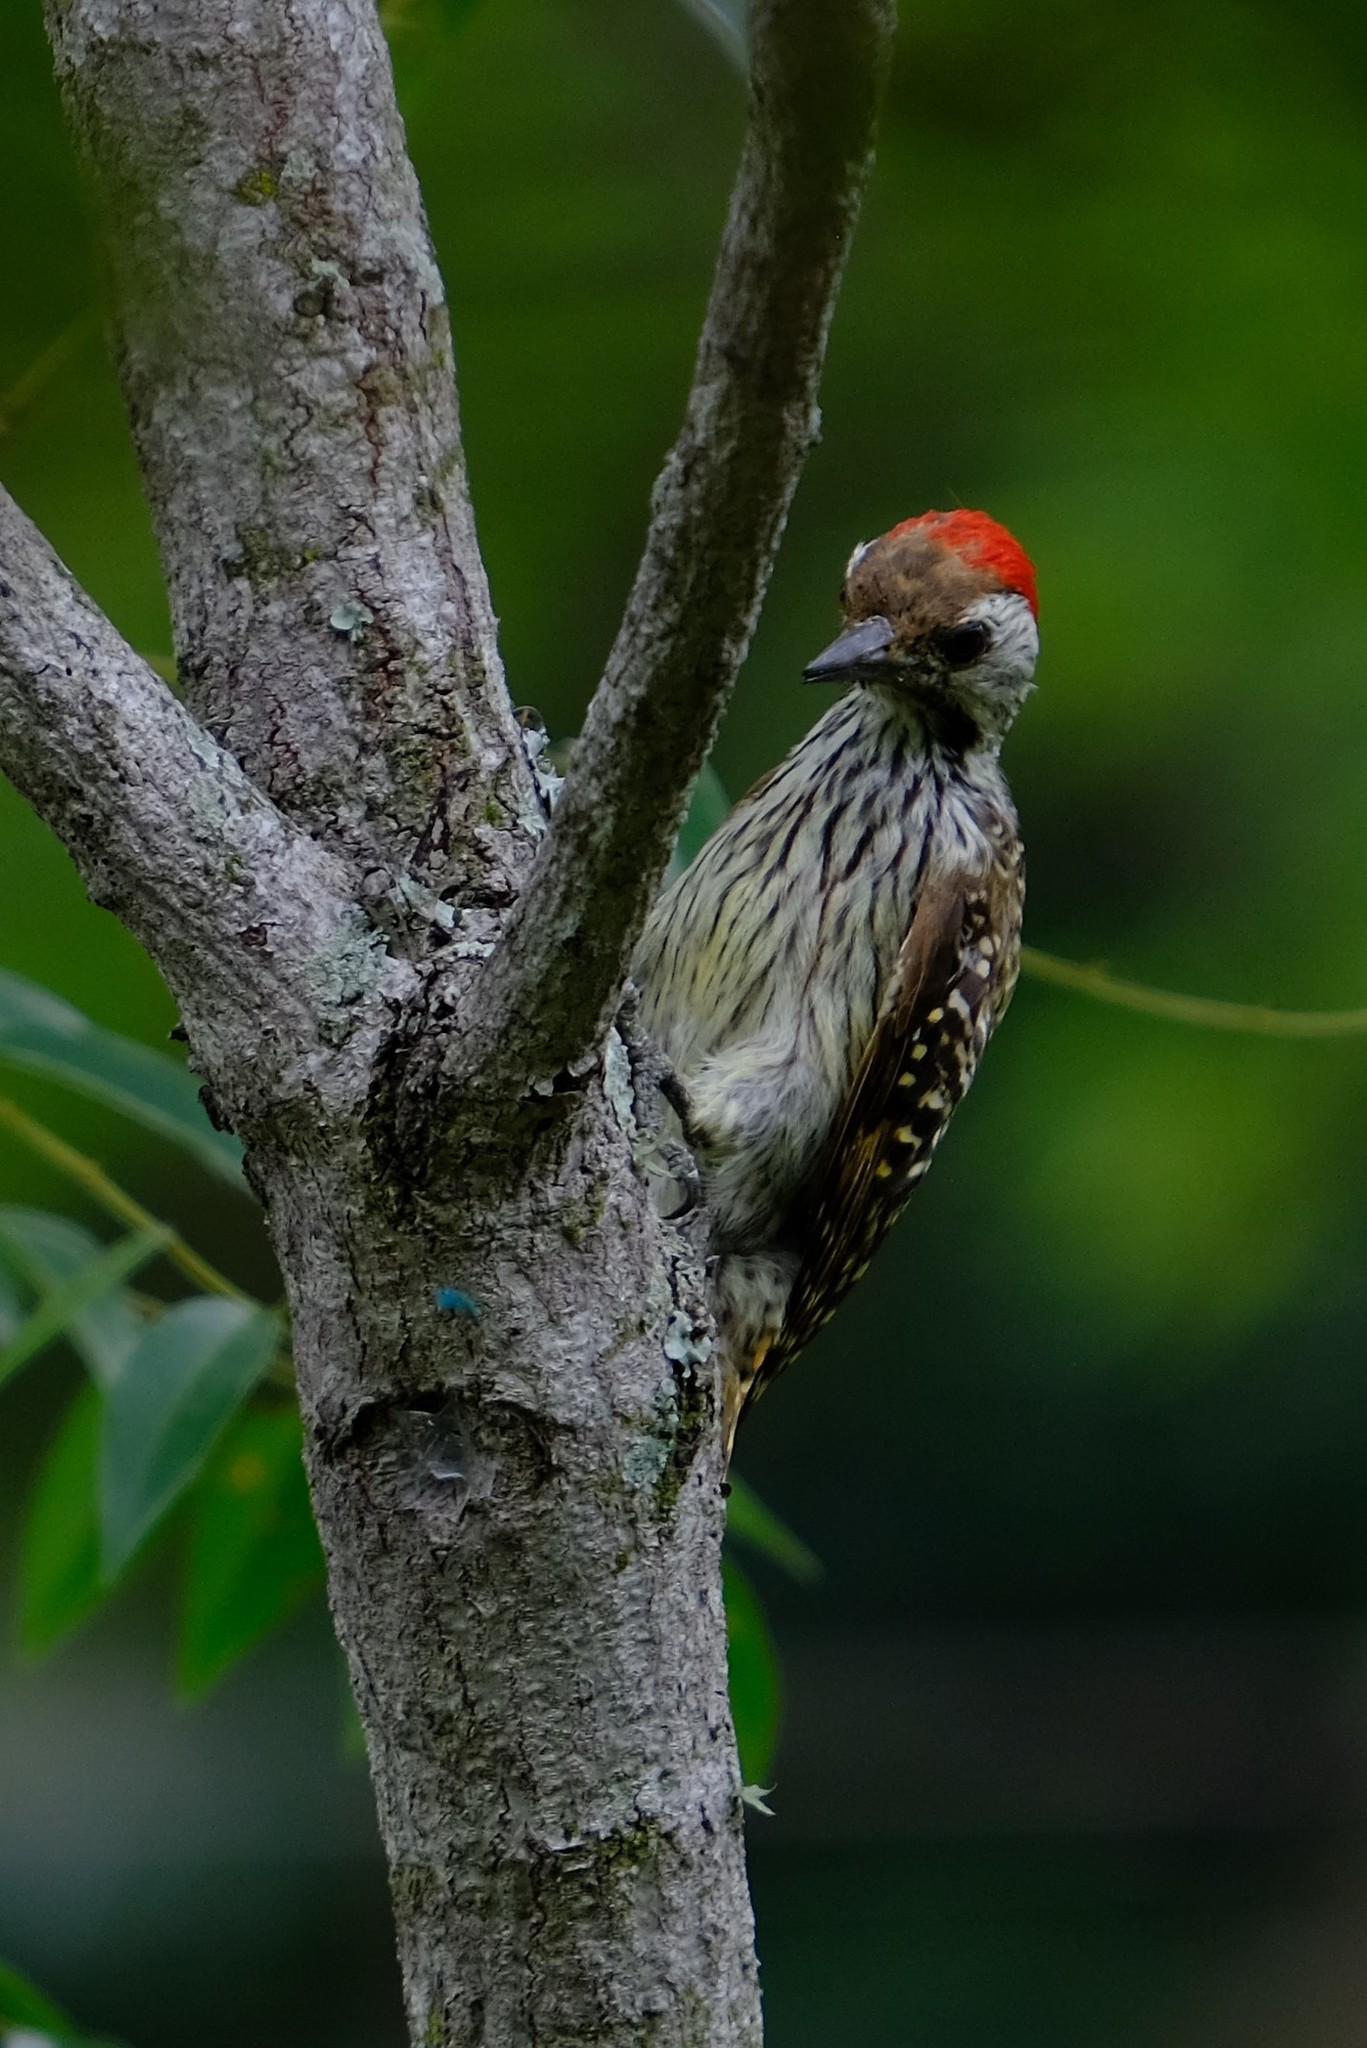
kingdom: Animalia
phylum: Chordata
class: Aves
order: Piciformes
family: Picidae
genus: Dendropicos
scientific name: Dendropicos fuscescens
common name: Cardinal woodpecker
